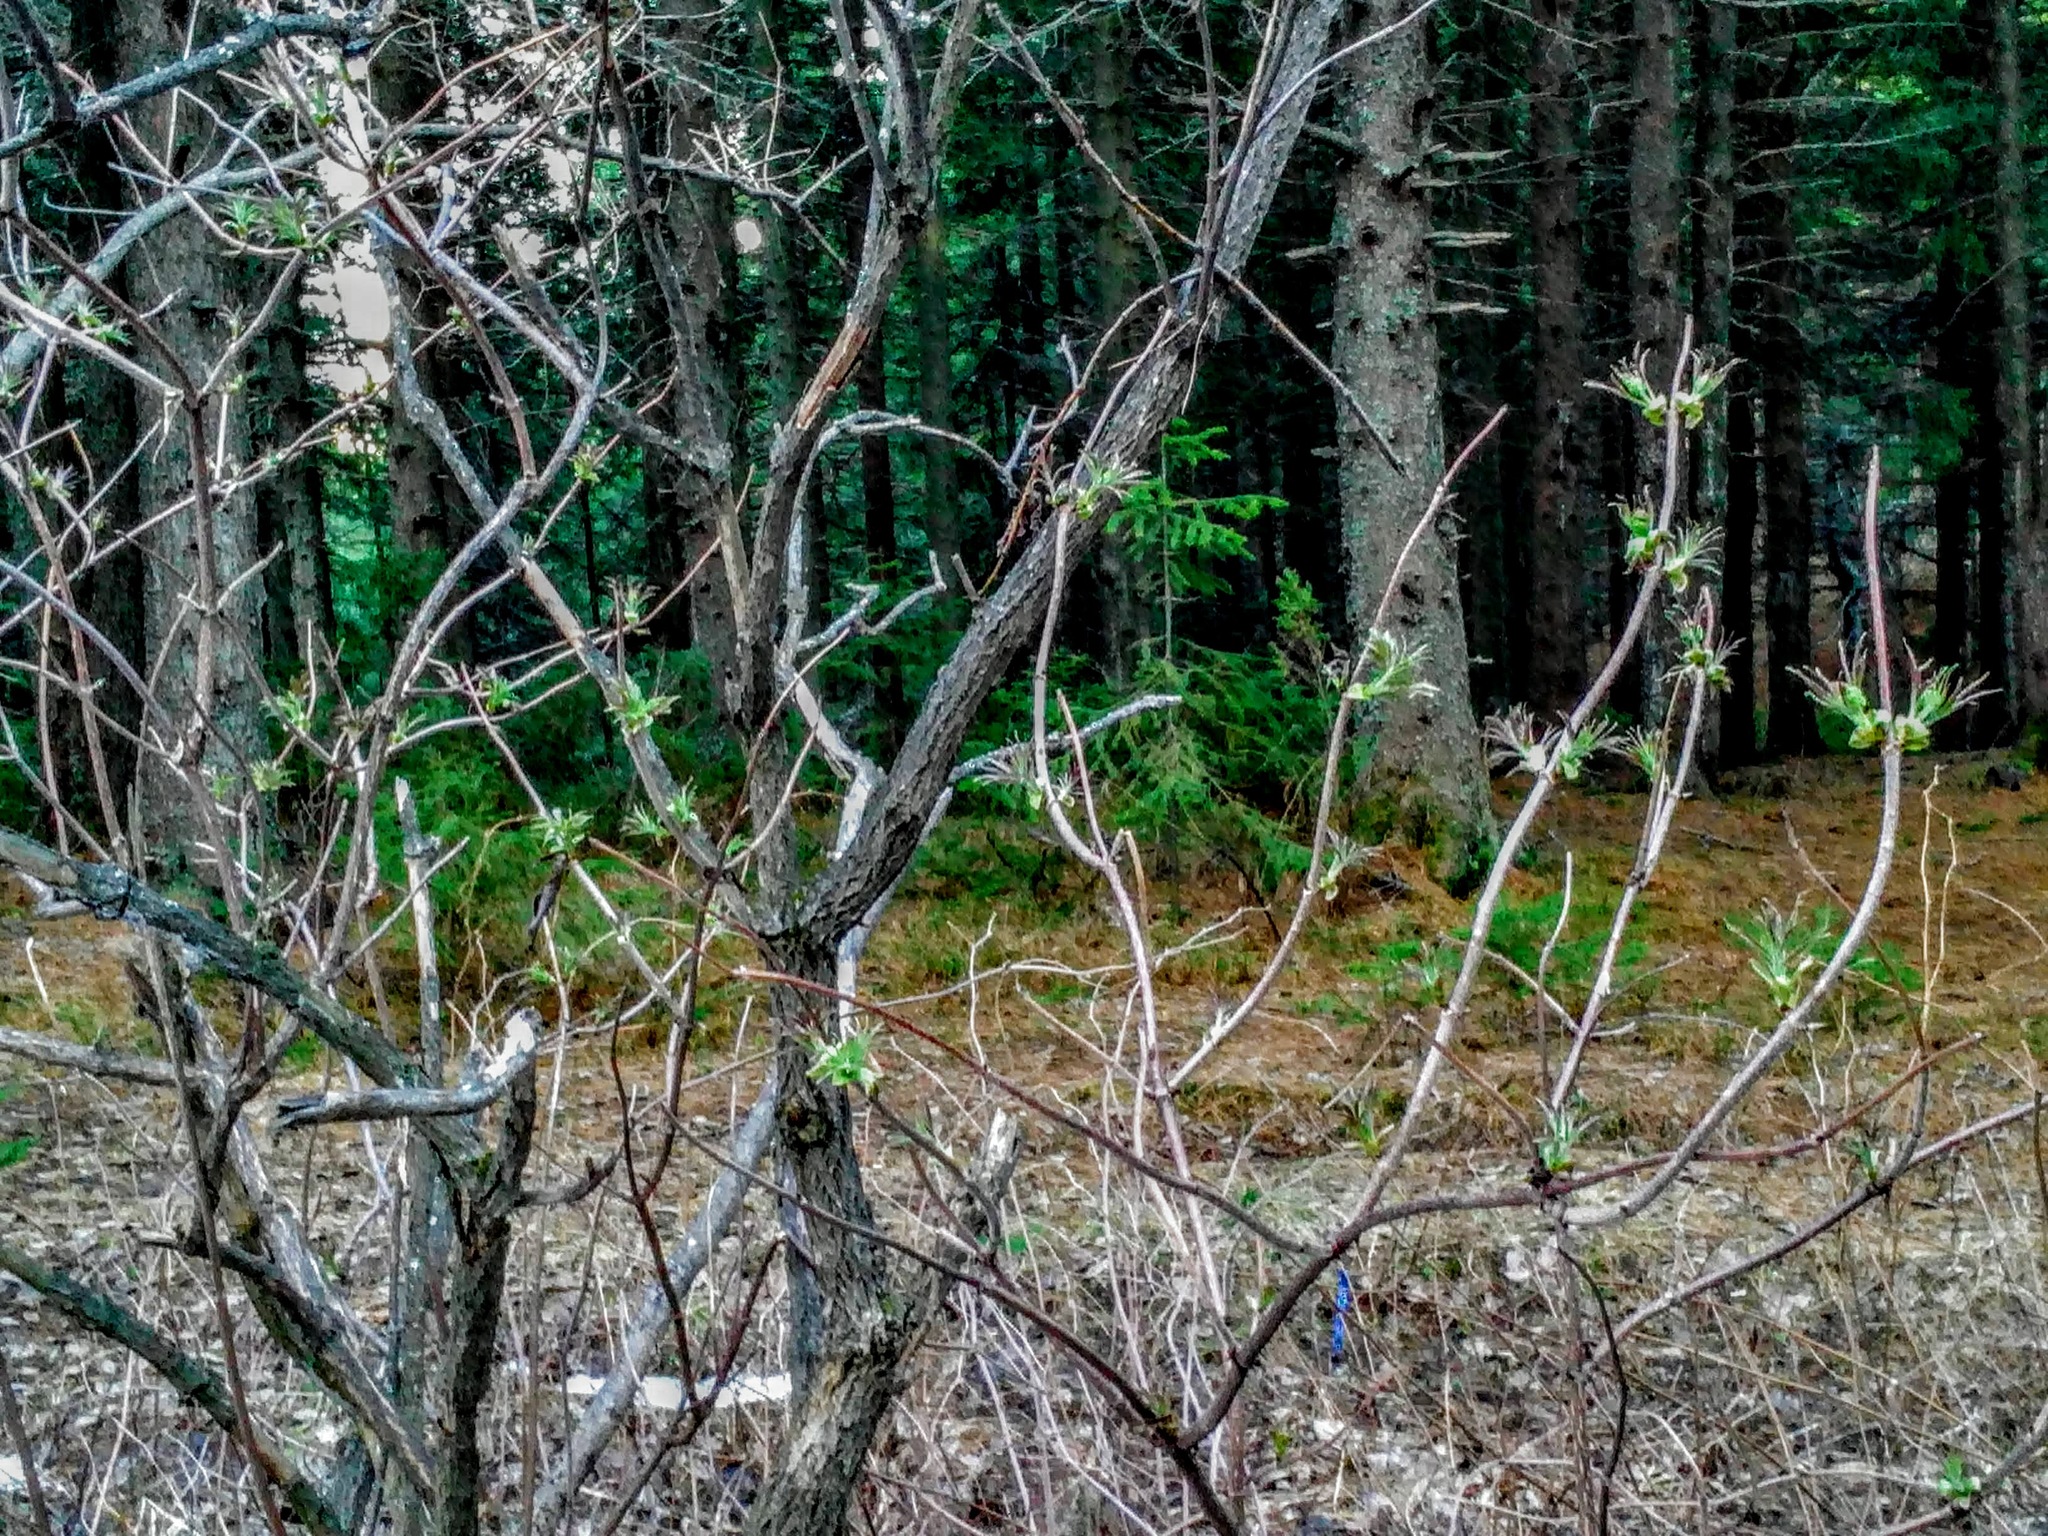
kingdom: Plantae
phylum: Tracheophyta
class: Magnoliopsida
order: Dipsacales
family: Viburnaceae
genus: Sambucus
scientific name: Sambucus sibirica
